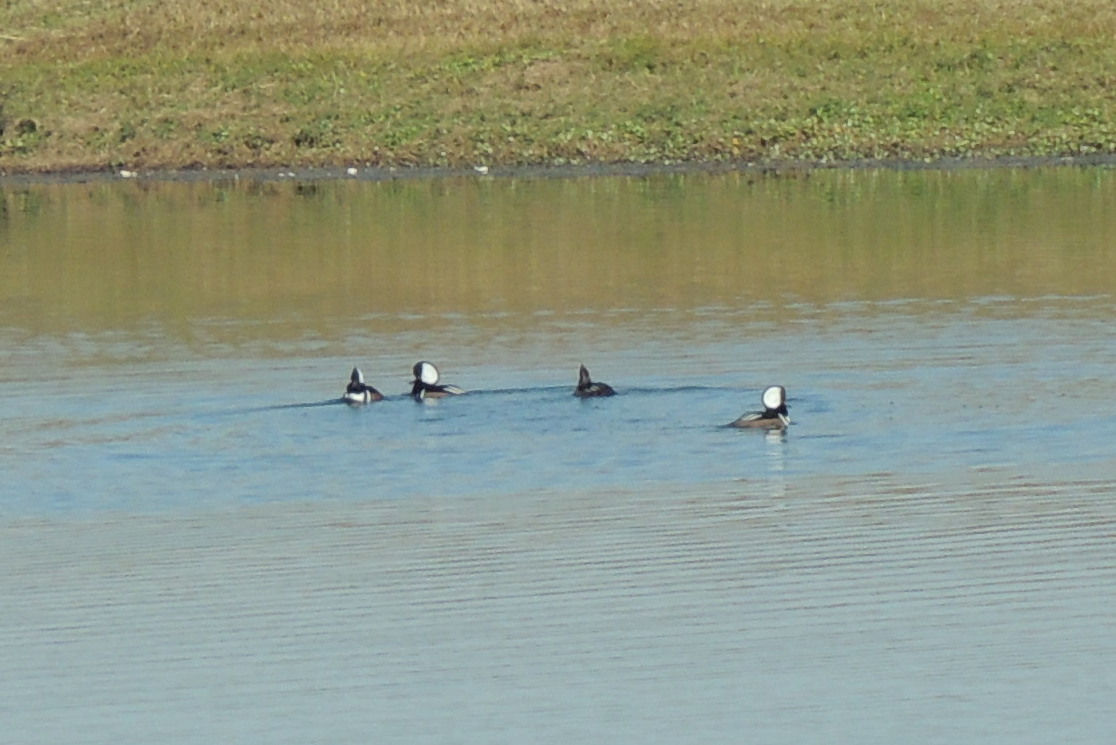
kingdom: Animalia
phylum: Chordata
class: Aves
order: Anseriformes
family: Anatidae
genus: Lophodytes
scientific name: Lophodytes cucullatus
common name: Hooded merganser
